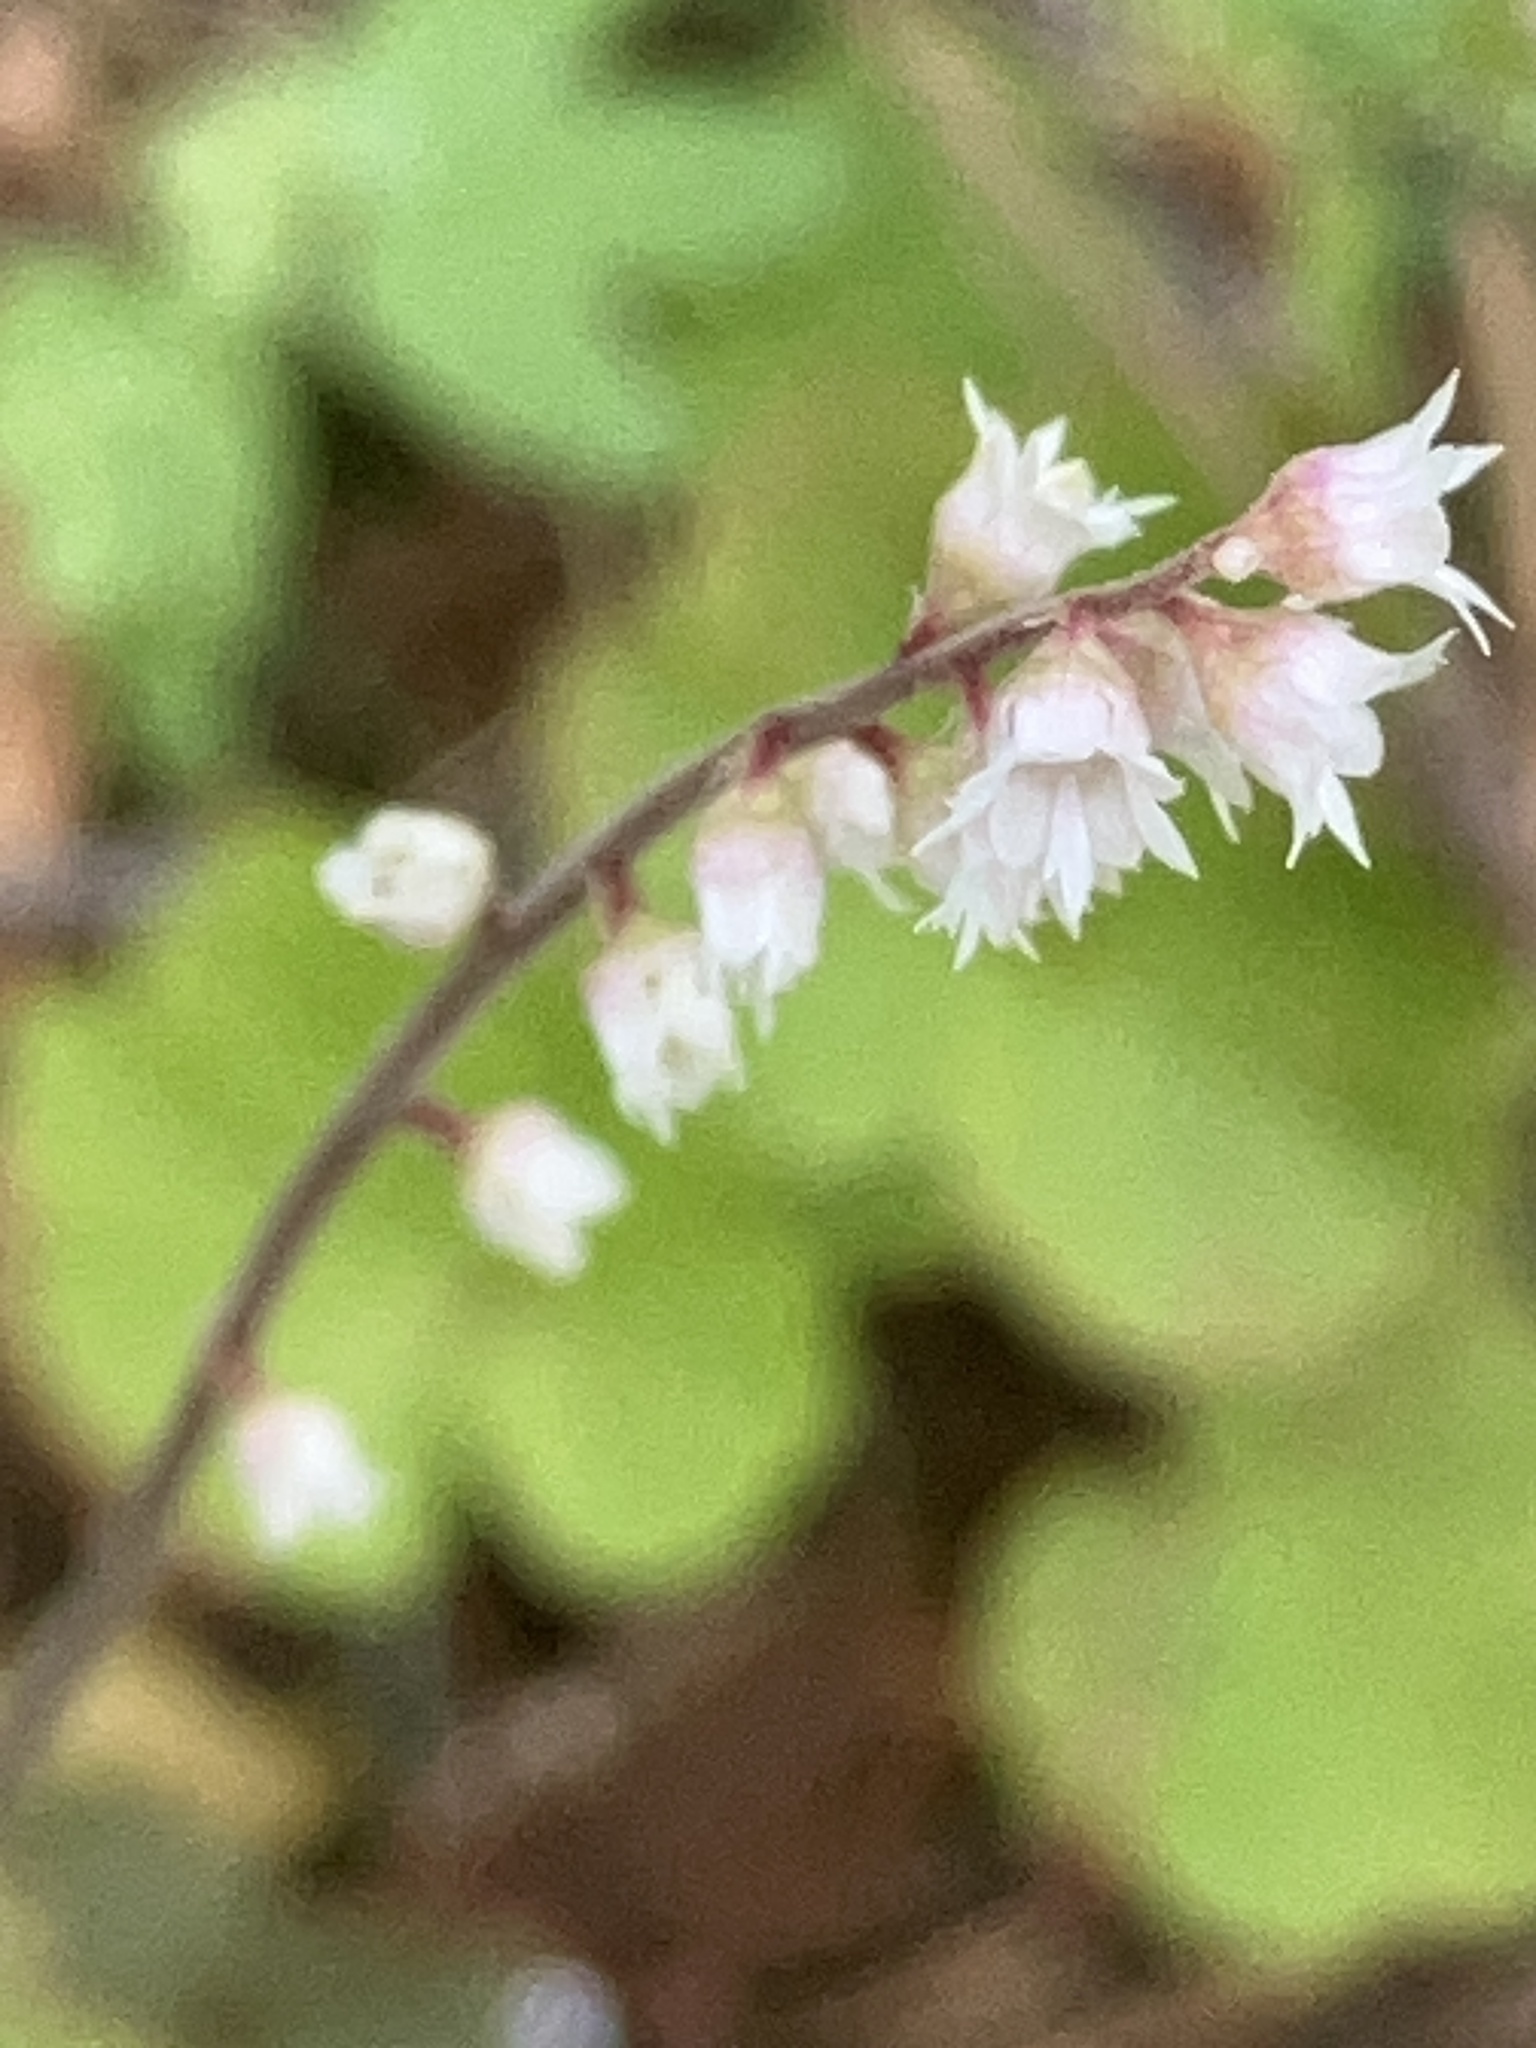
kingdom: Plantae
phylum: Tracheophyta
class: Magnoliopsida
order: Saxifragales
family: Saxifragaceae
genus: Ozomelis
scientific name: Ozomelis trifida
